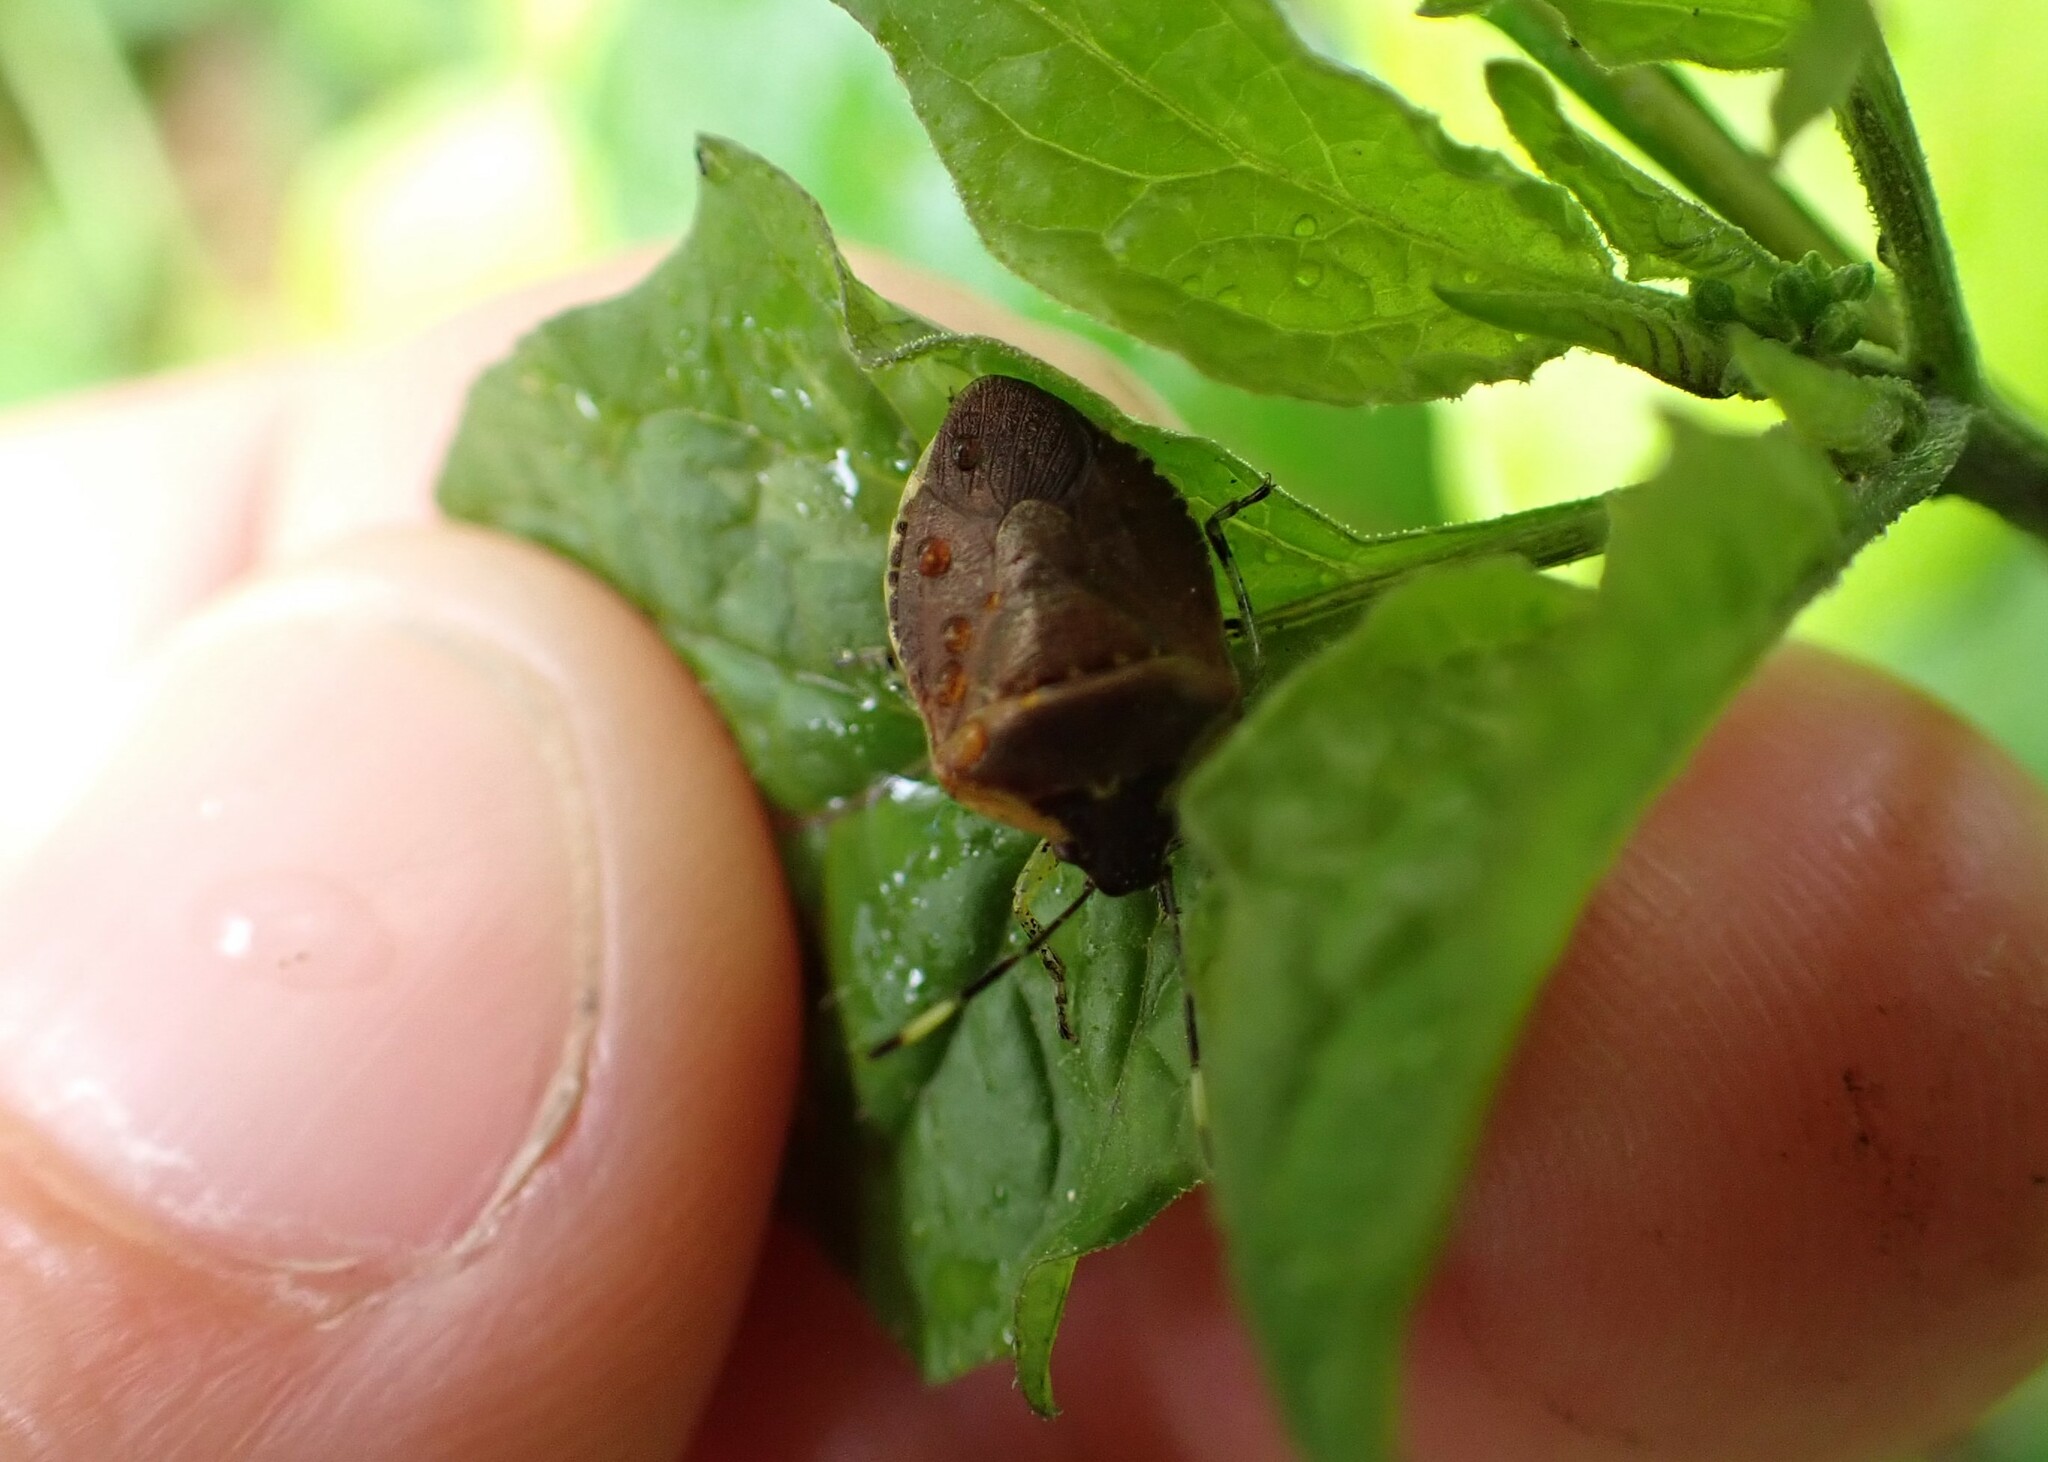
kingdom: Animalia
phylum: Arthropoda
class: Insecta
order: Hemiptera
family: Pentatomidae
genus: Monteithiella
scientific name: Monteithiella
